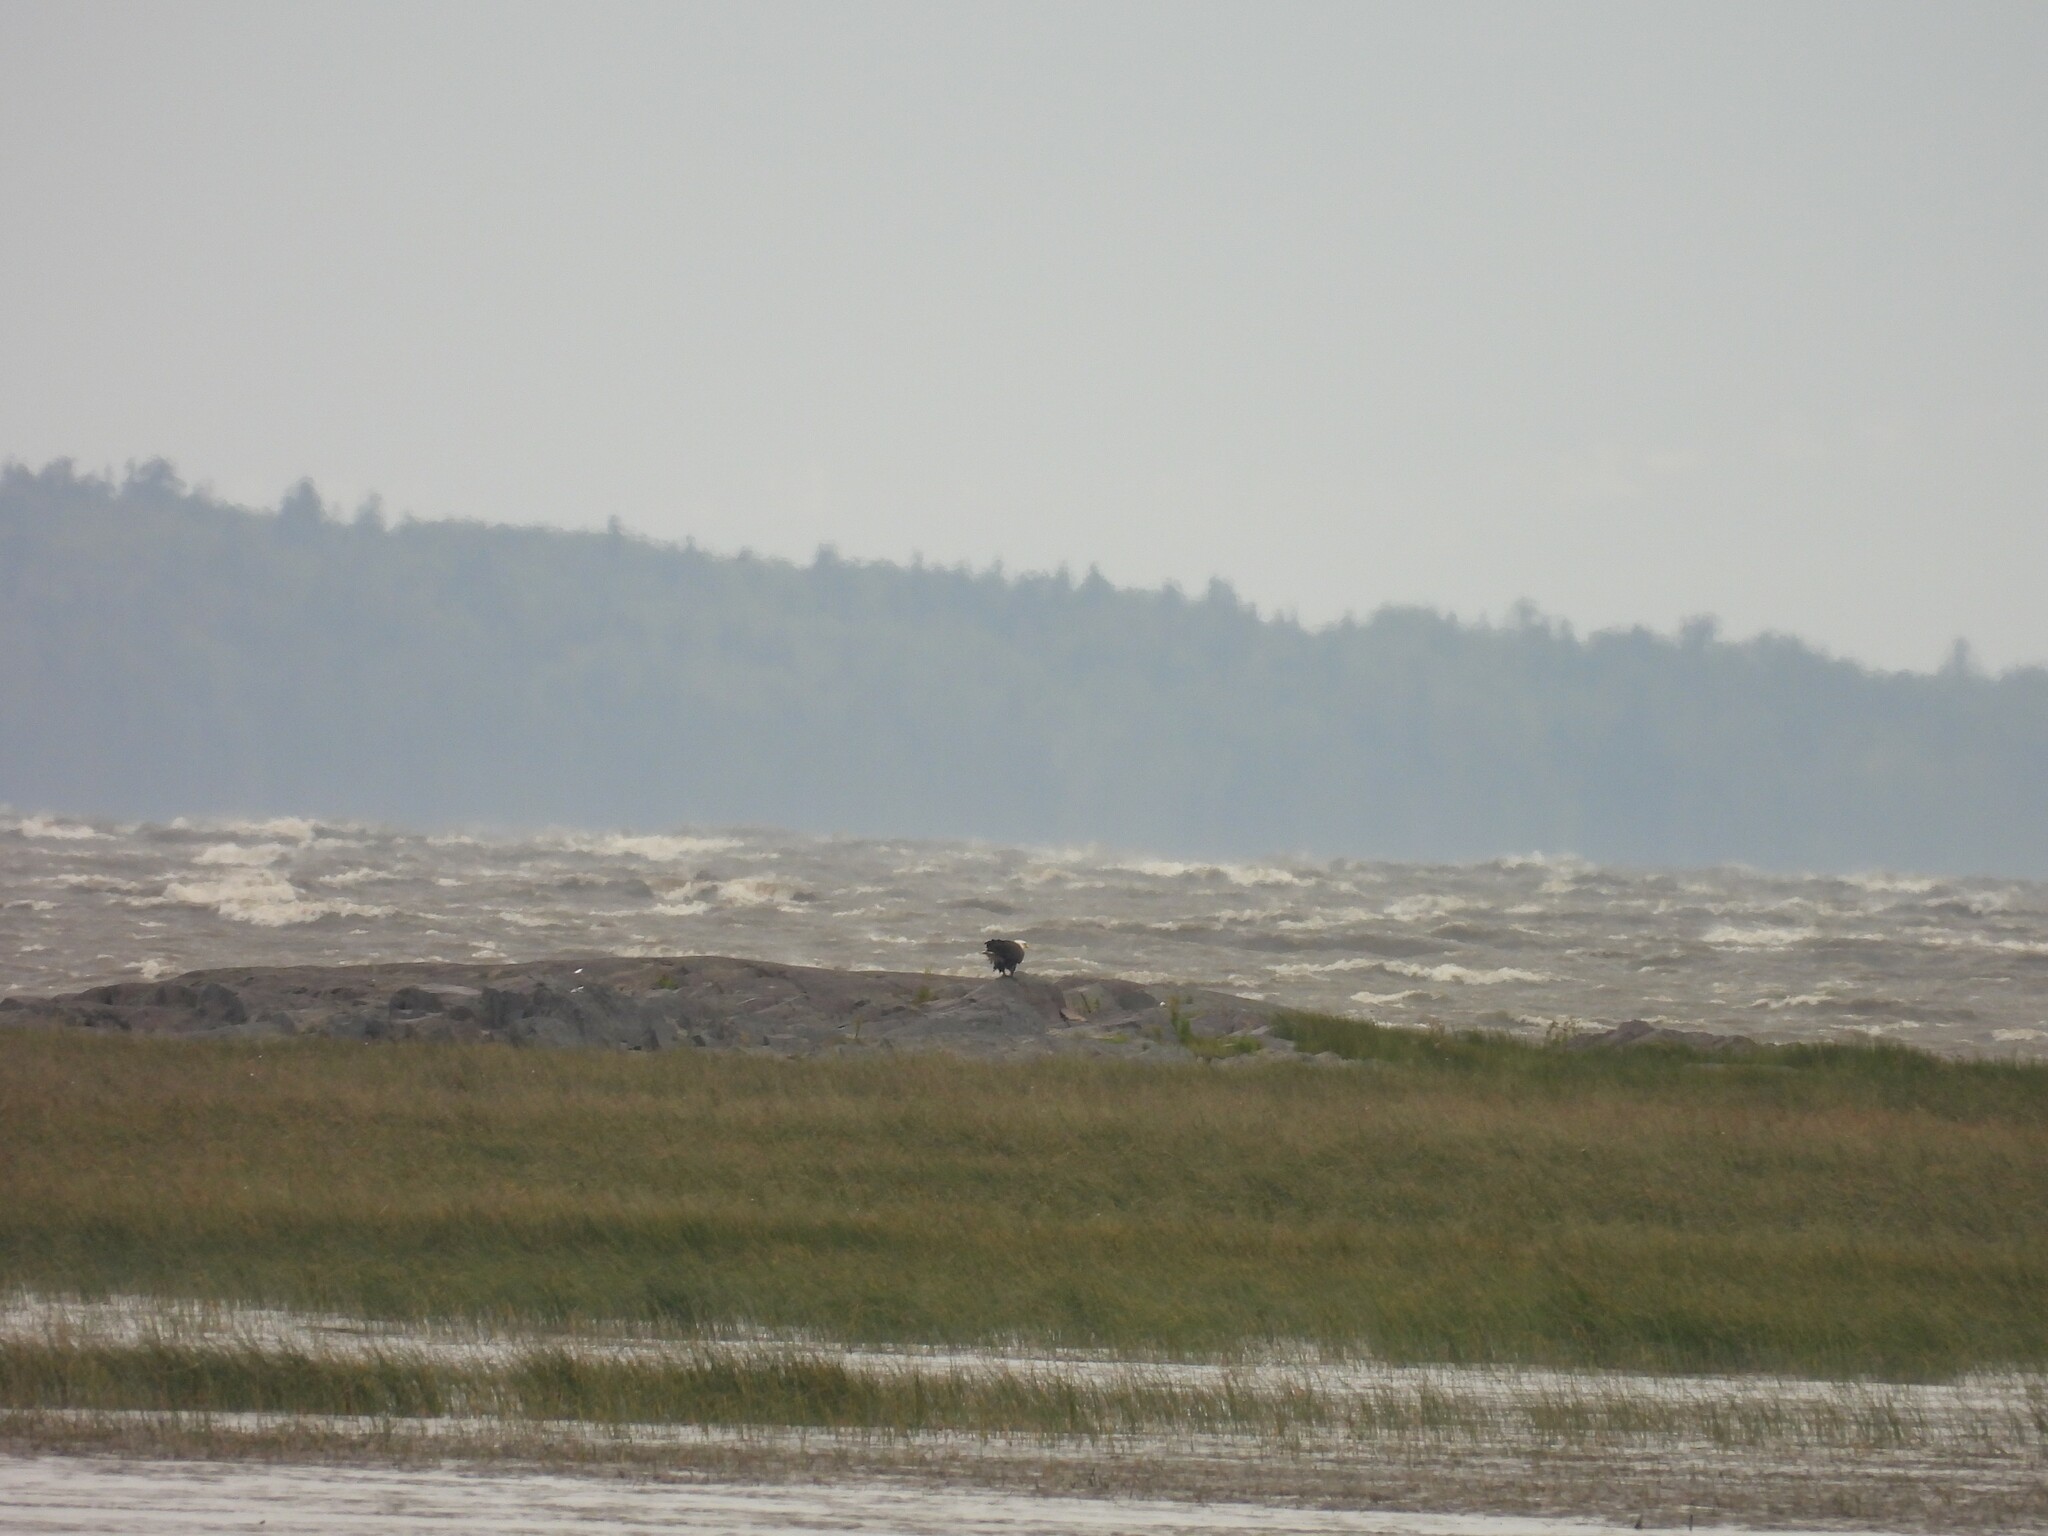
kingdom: Animalia
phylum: Chordata
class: Aves
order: Accipitriformes
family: Accipitridae
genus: Haliaeetus
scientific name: Haliaeetus leucocephalus
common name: Bald eagle
